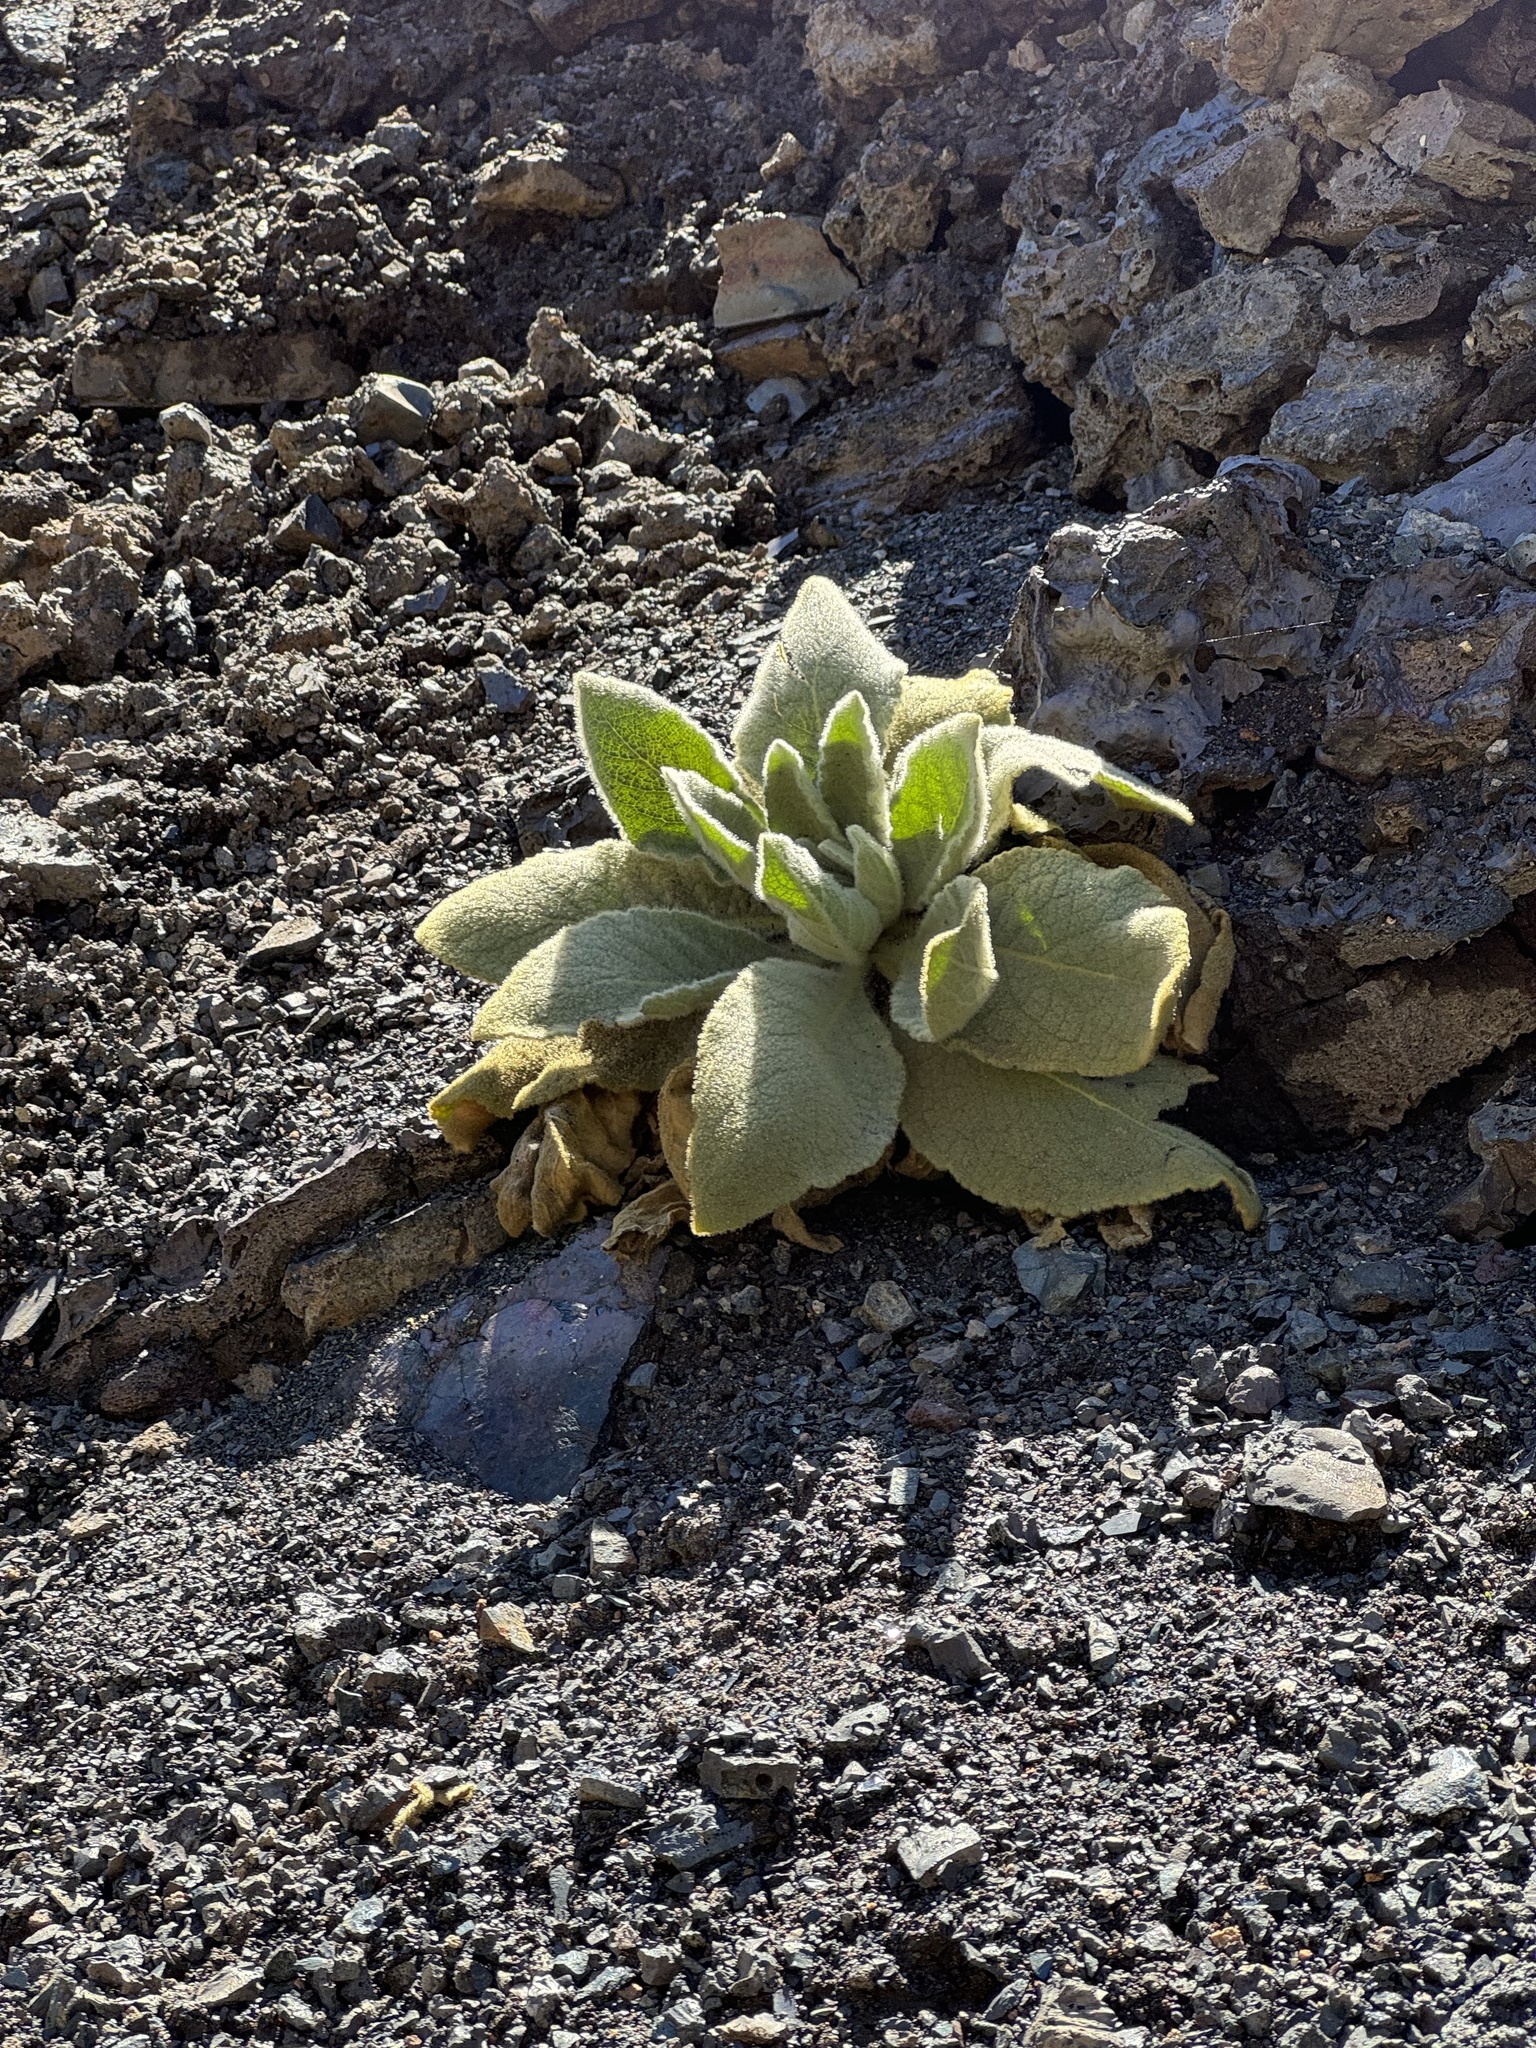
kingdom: Plantae
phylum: Tracheophyta
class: Magnoliopsida
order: Lamiales
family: Scrophulariaceae
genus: Verbascum
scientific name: Verbascum thapsus
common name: Common mullein
